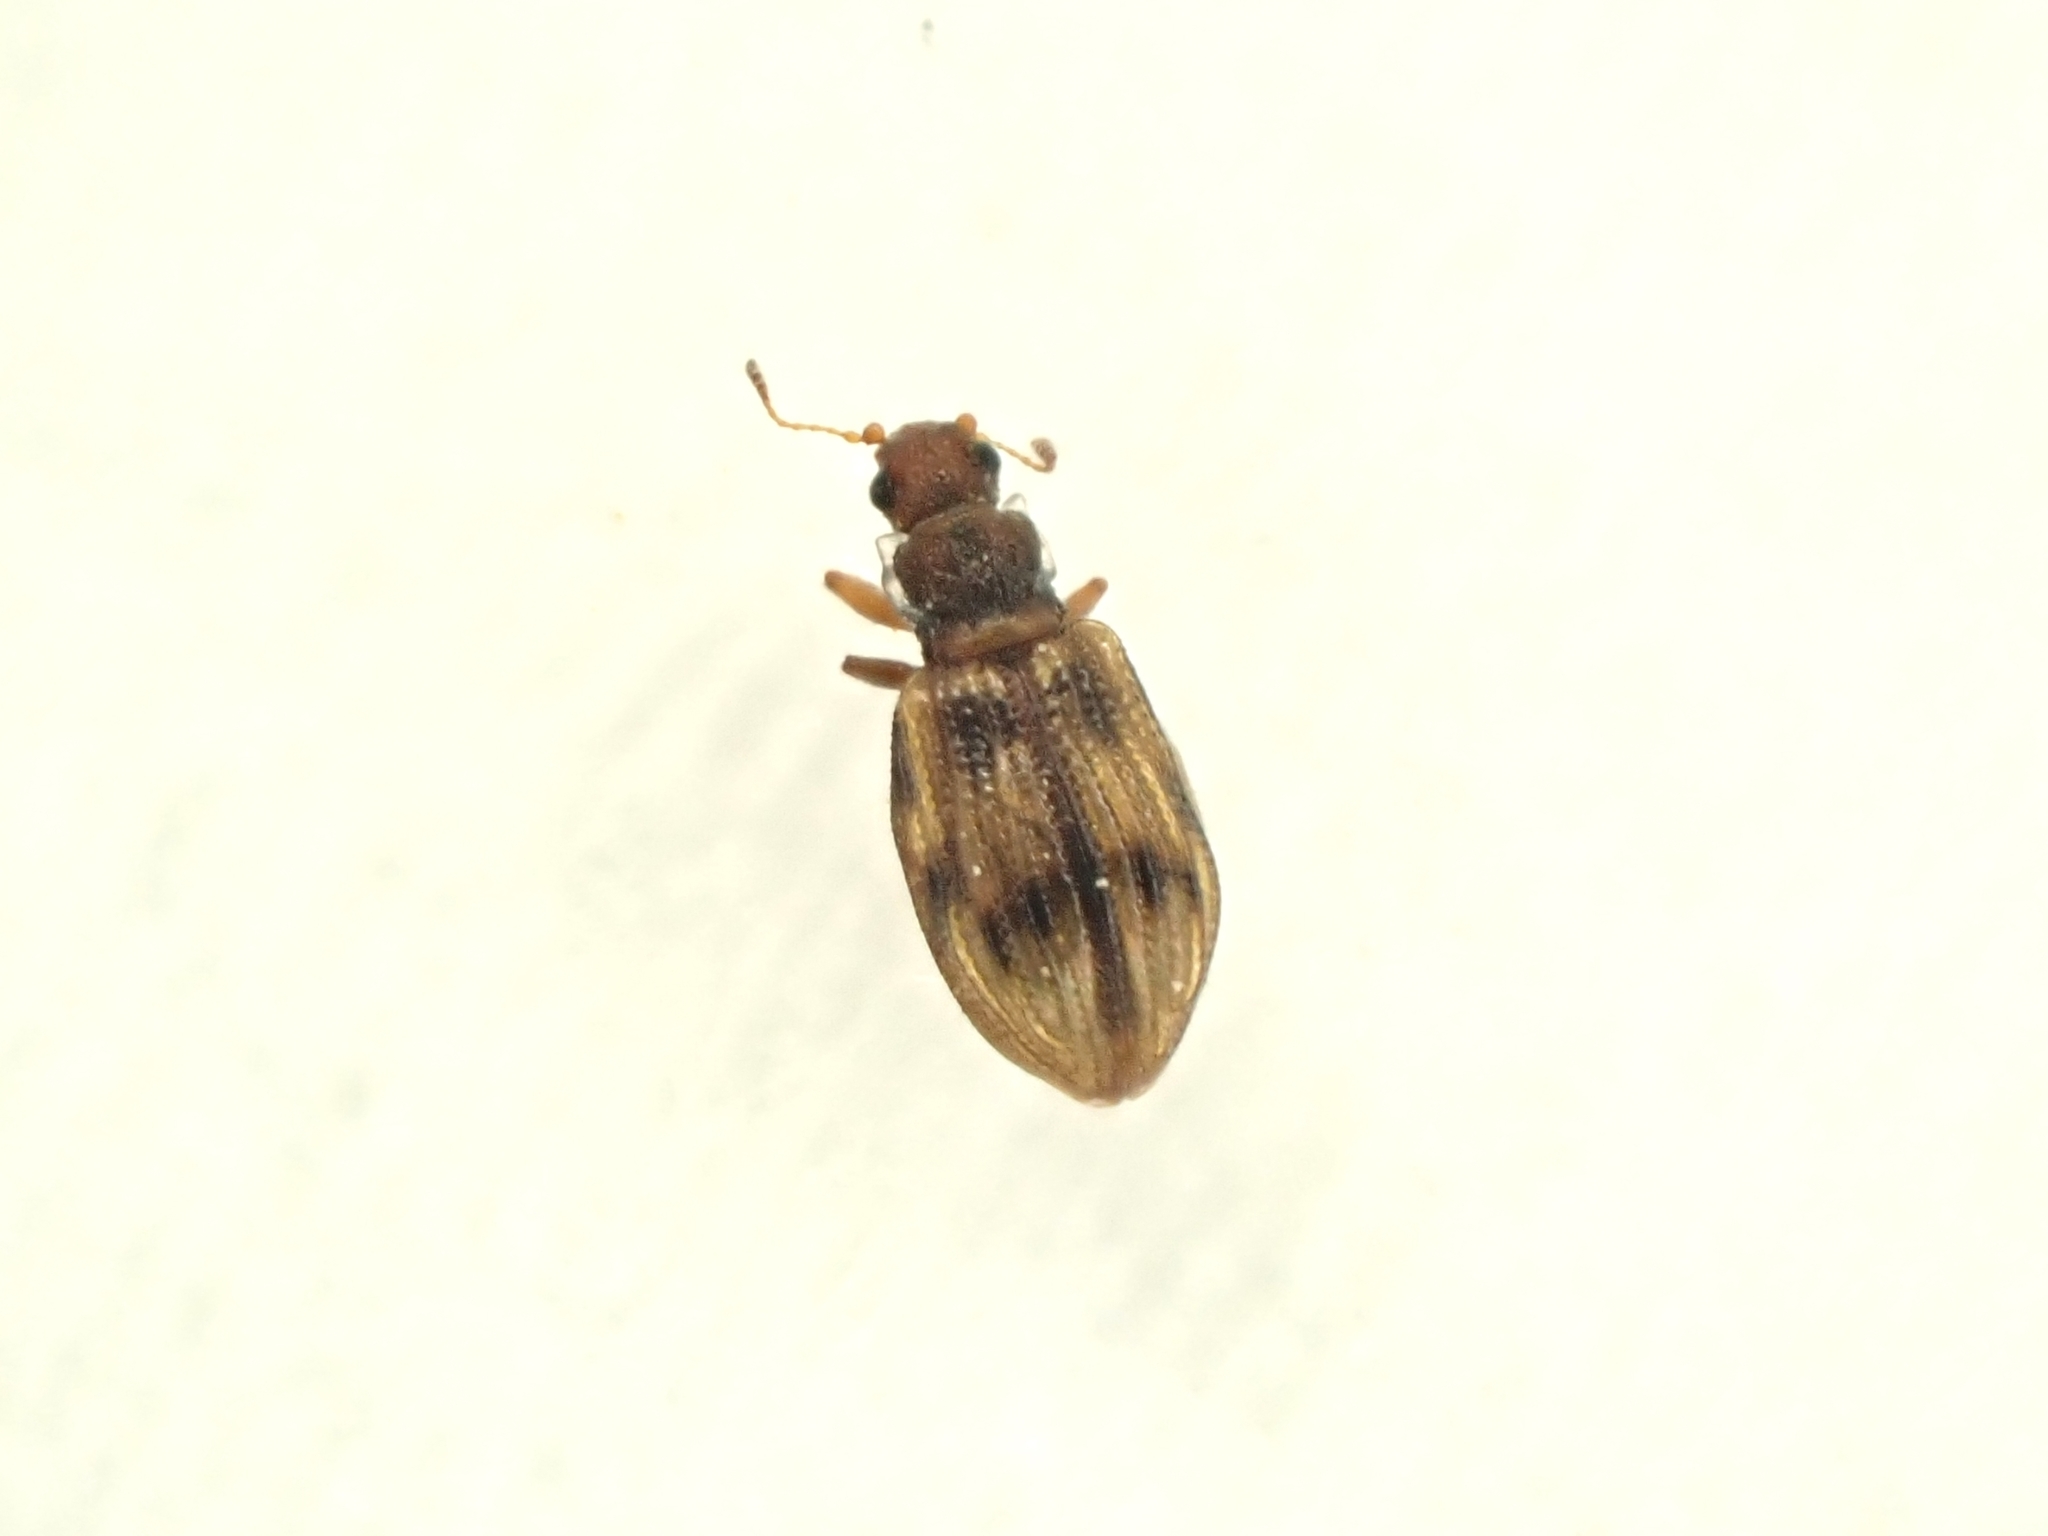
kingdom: Animalia
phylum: Arthropoda
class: Insecta
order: Coleoptera
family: Latridiidae
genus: Cartodere
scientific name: Cartodere bifasciata
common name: Plaster beetle
